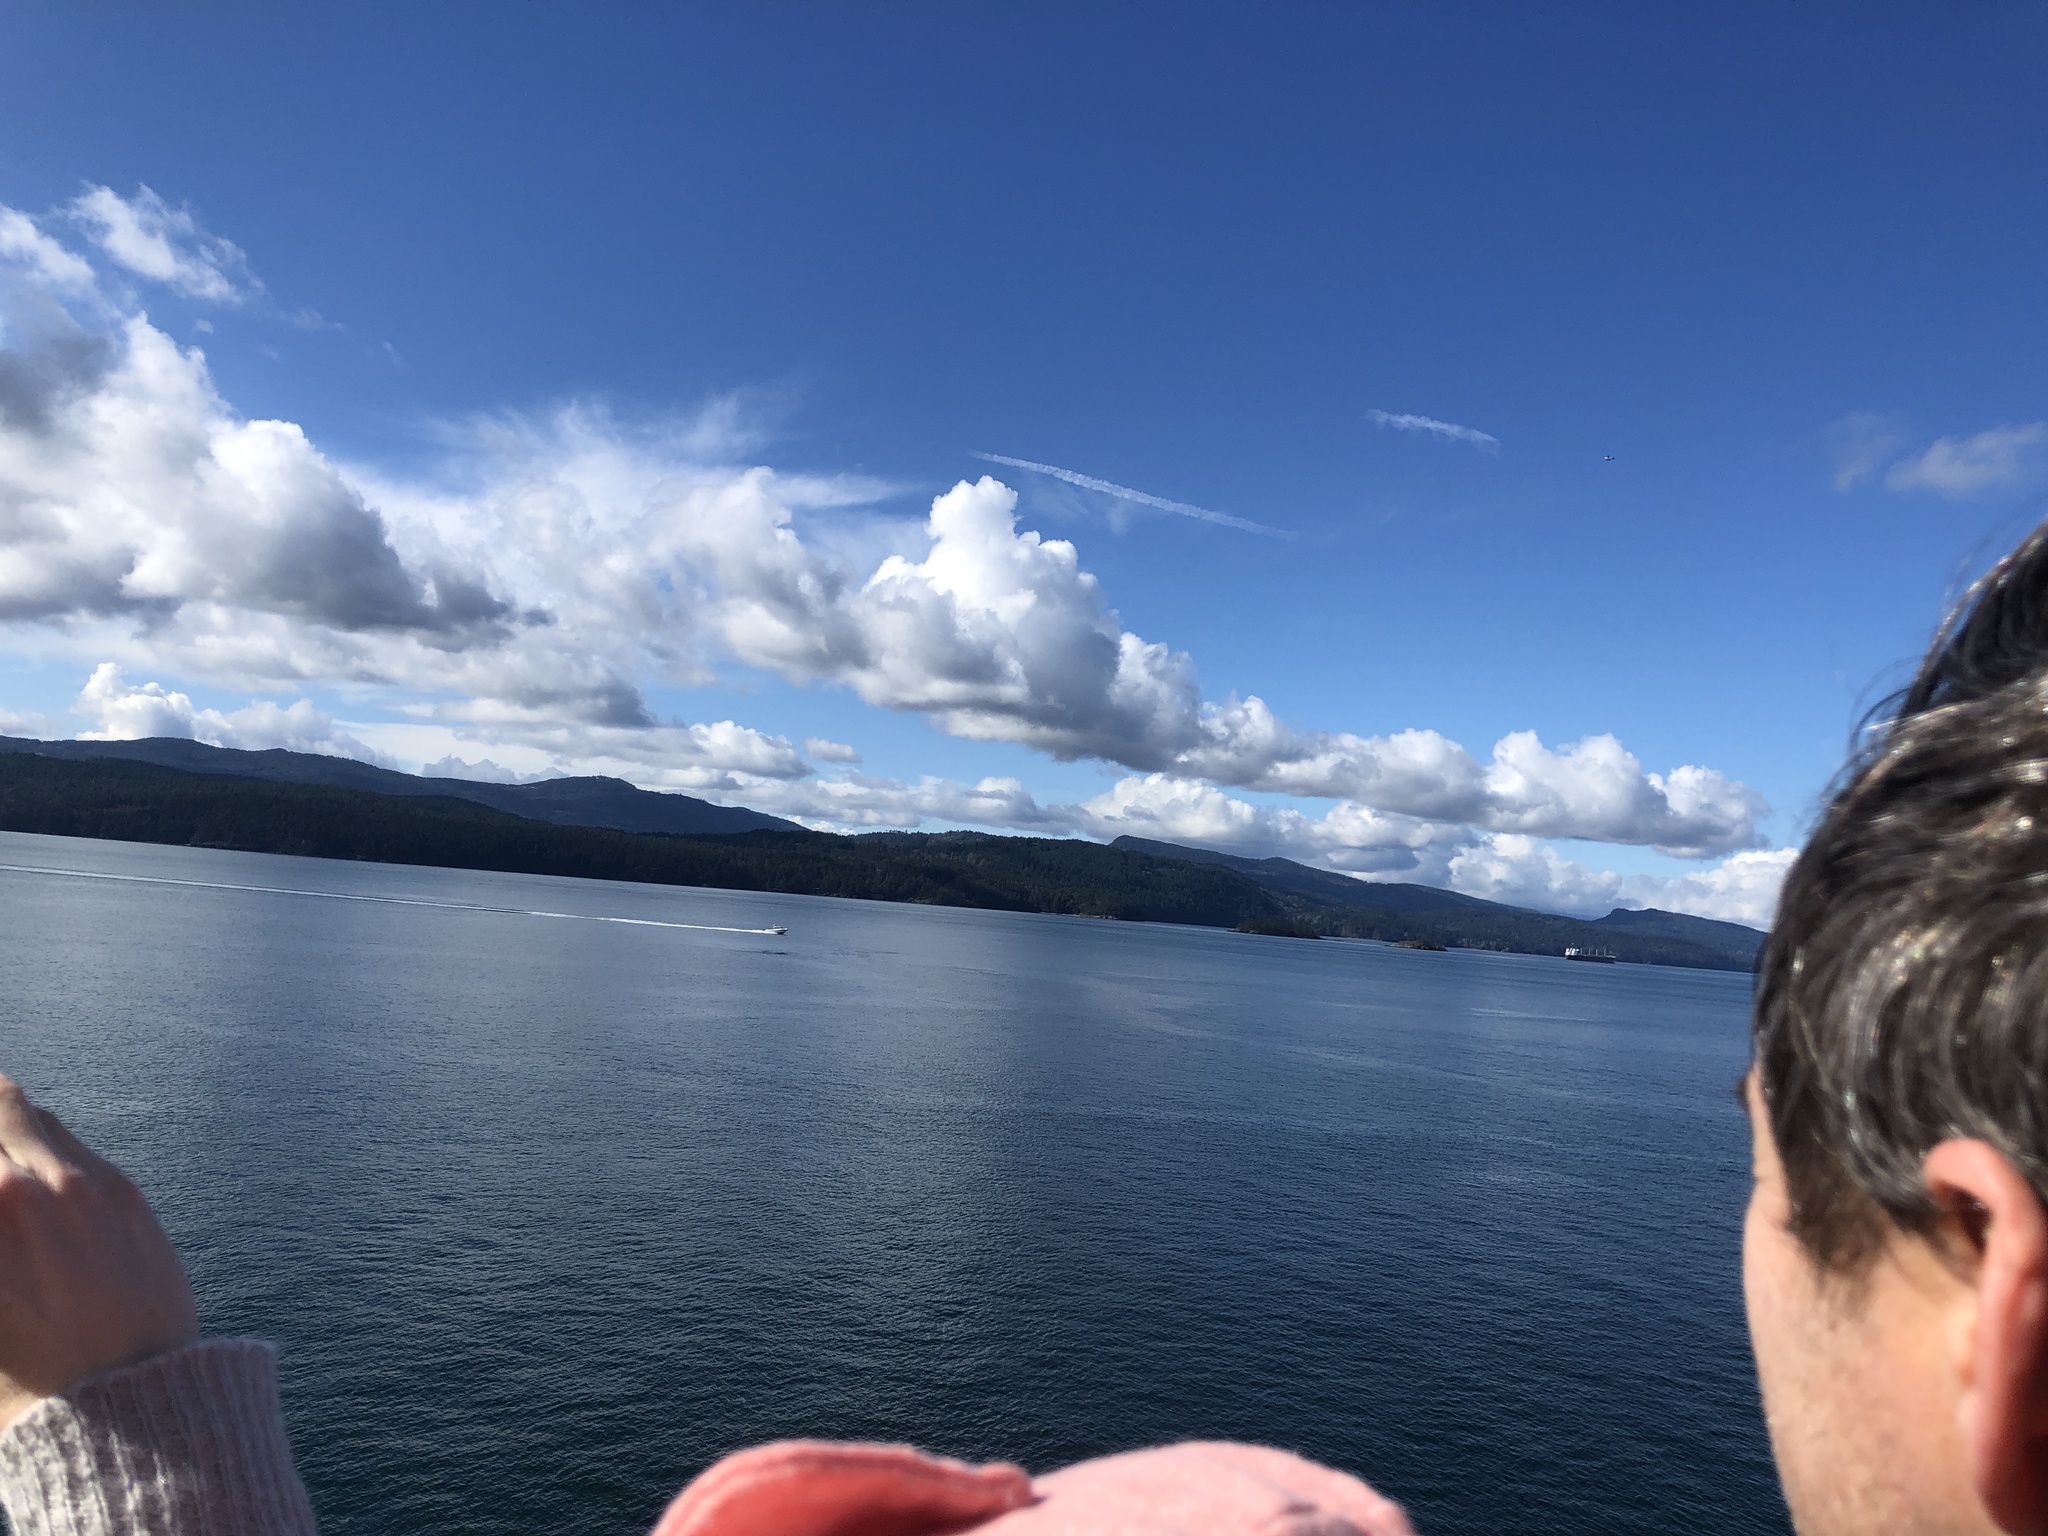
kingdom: Animalia
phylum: Chordata
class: Mammalia
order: Cetacea
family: Delphinidae
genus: Orcinus
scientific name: Orcinus orca
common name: Killer whale
